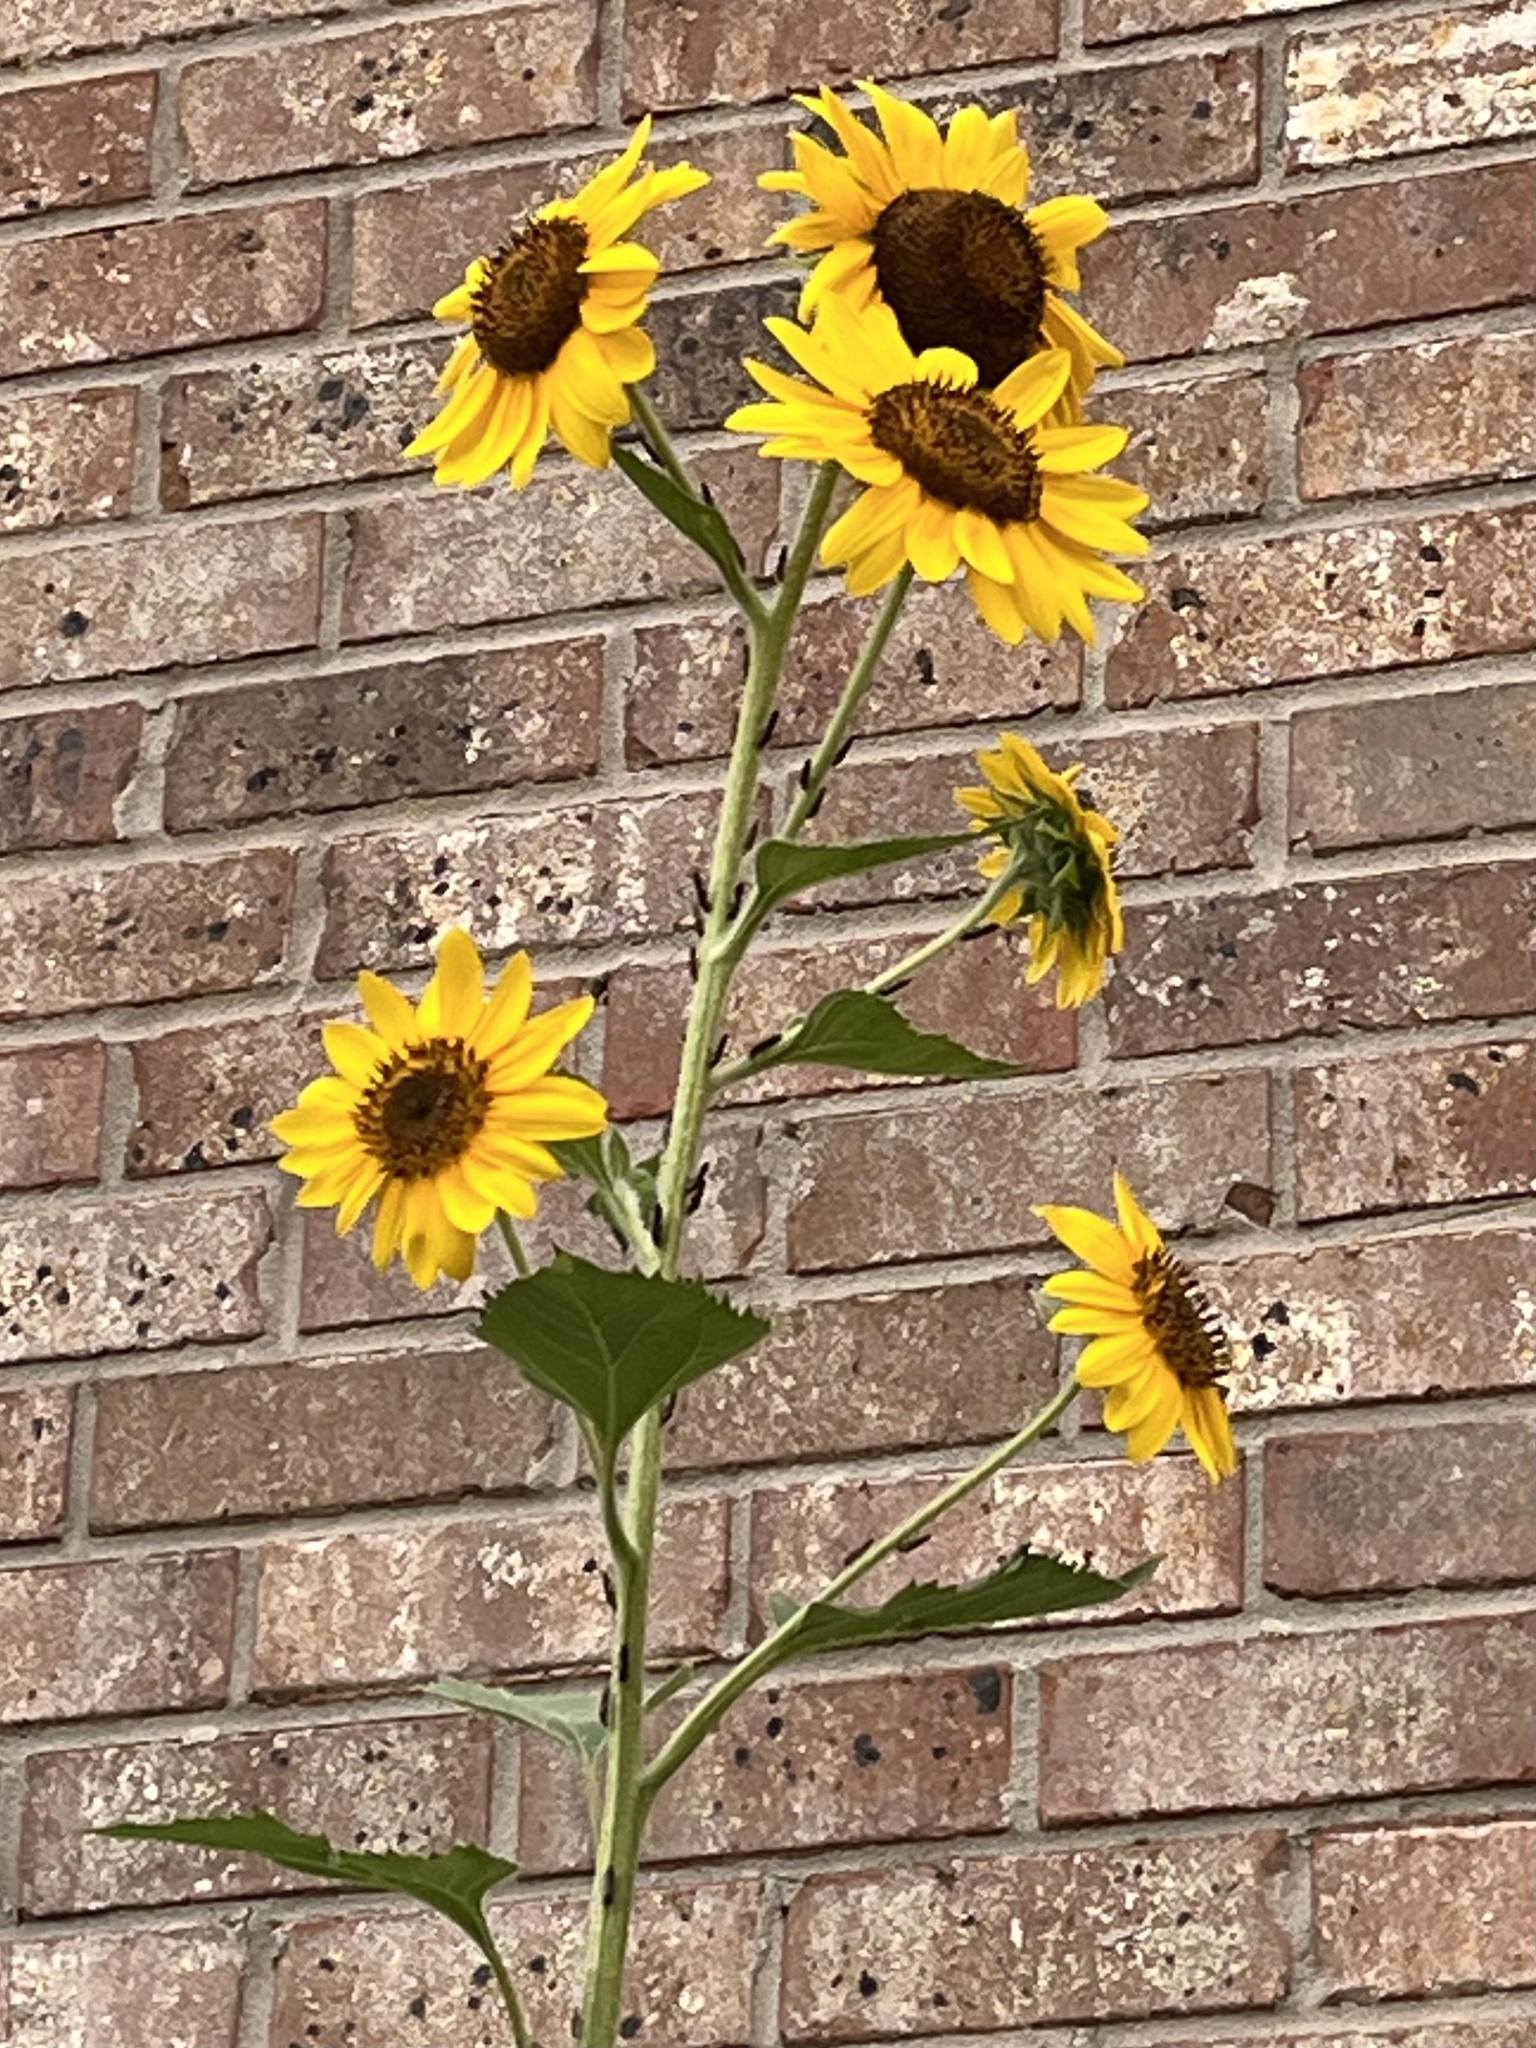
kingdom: Plantae
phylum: Tracheophyta
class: Magnoliopsida
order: Asterales
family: Asteraceae
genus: Helianthus
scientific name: Helianthus annuus
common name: Sunflower
